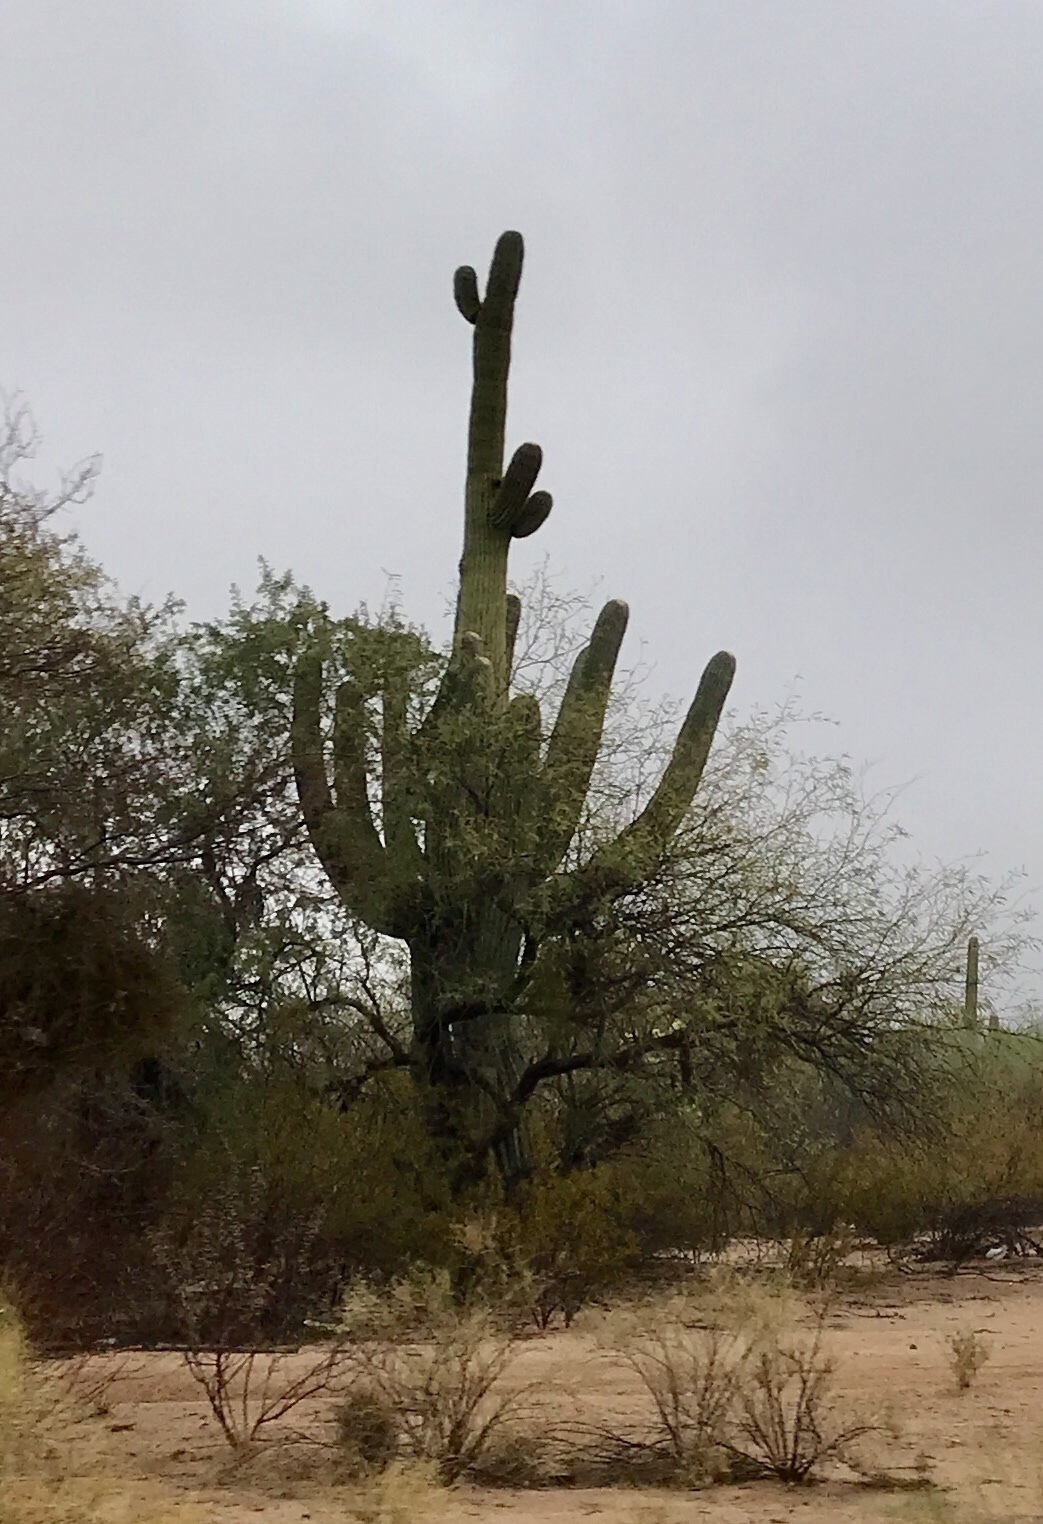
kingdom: Plantae
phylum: Tracheophyta
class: Magnoliopsida
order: Caryophyllales
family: Cactaceae
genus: Carnegiea
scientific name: Carnegiea gigantea
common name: Saguaro
